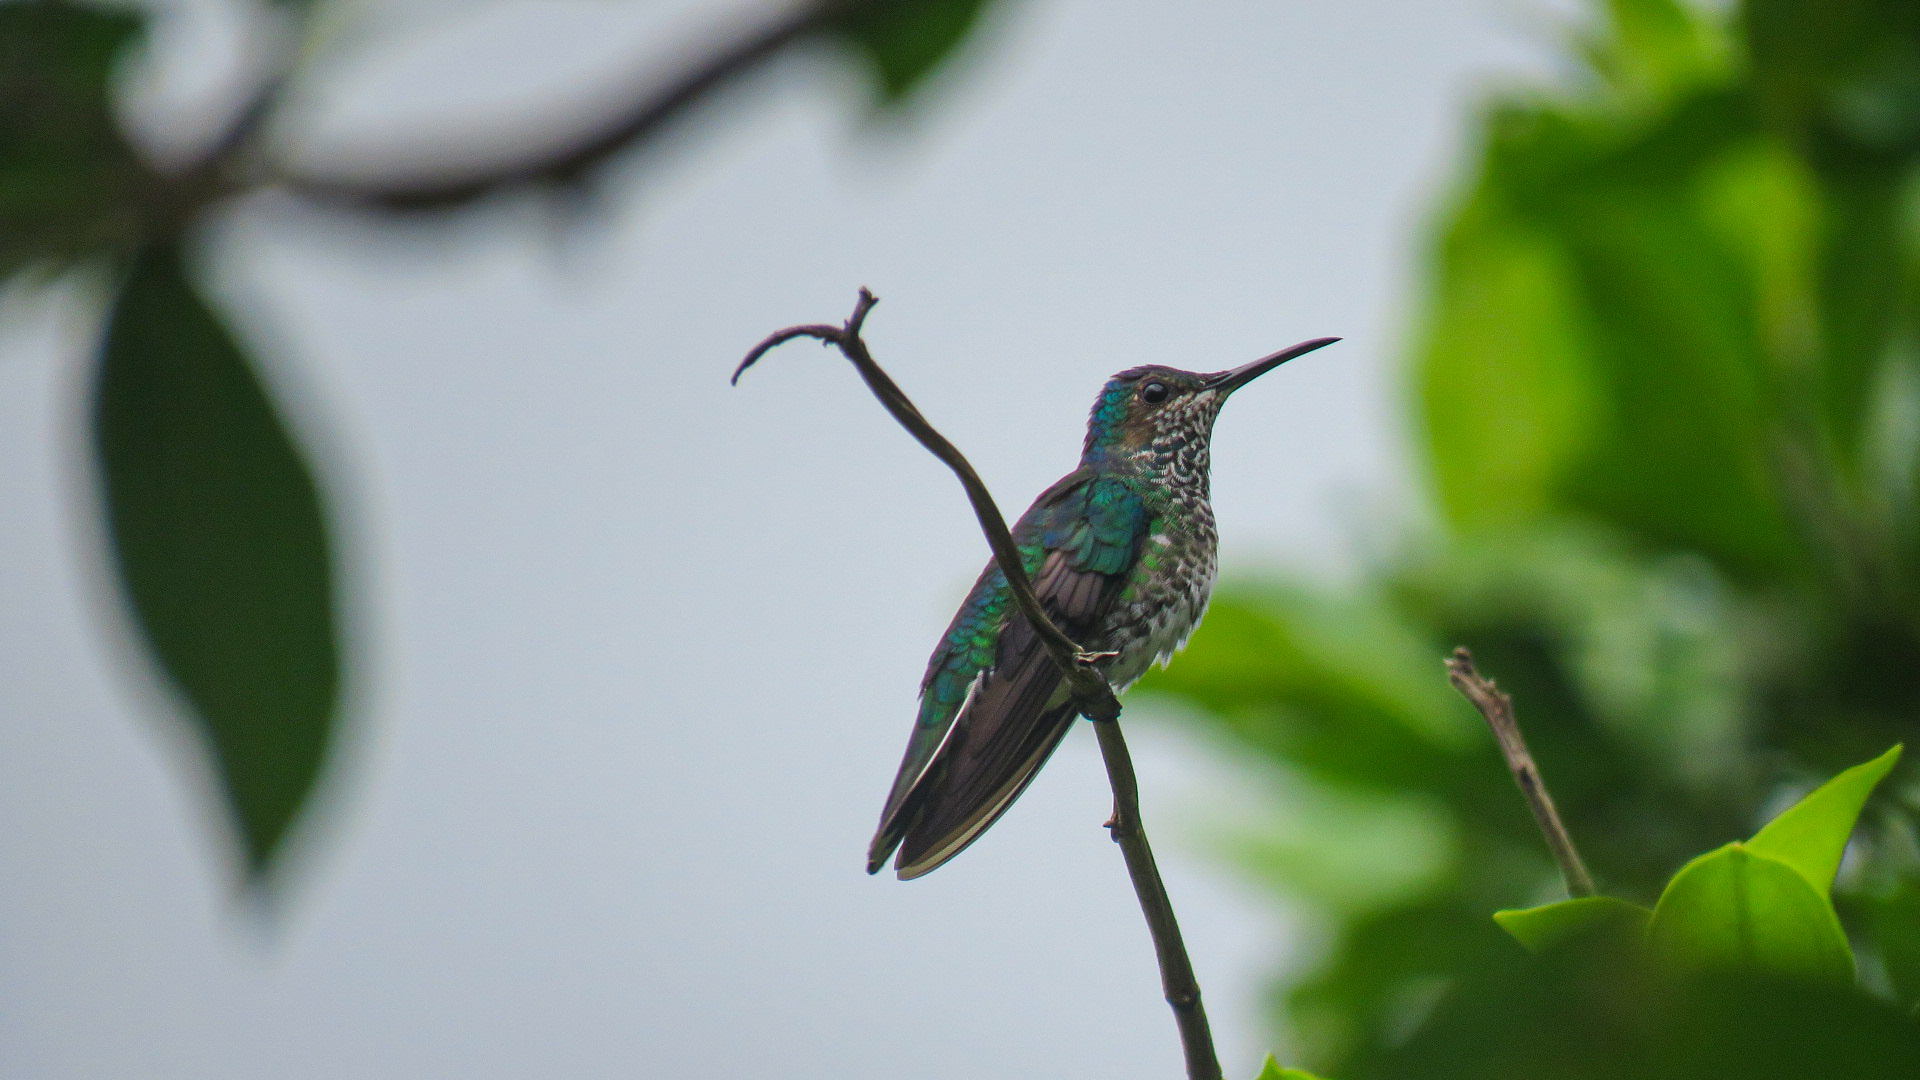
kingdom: Animalia
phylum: Chordata
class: Aves
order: Apodiformes
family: Trochilidae
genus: Florisuga
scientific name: Florisuga mellivora
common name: White-necked jacobin
